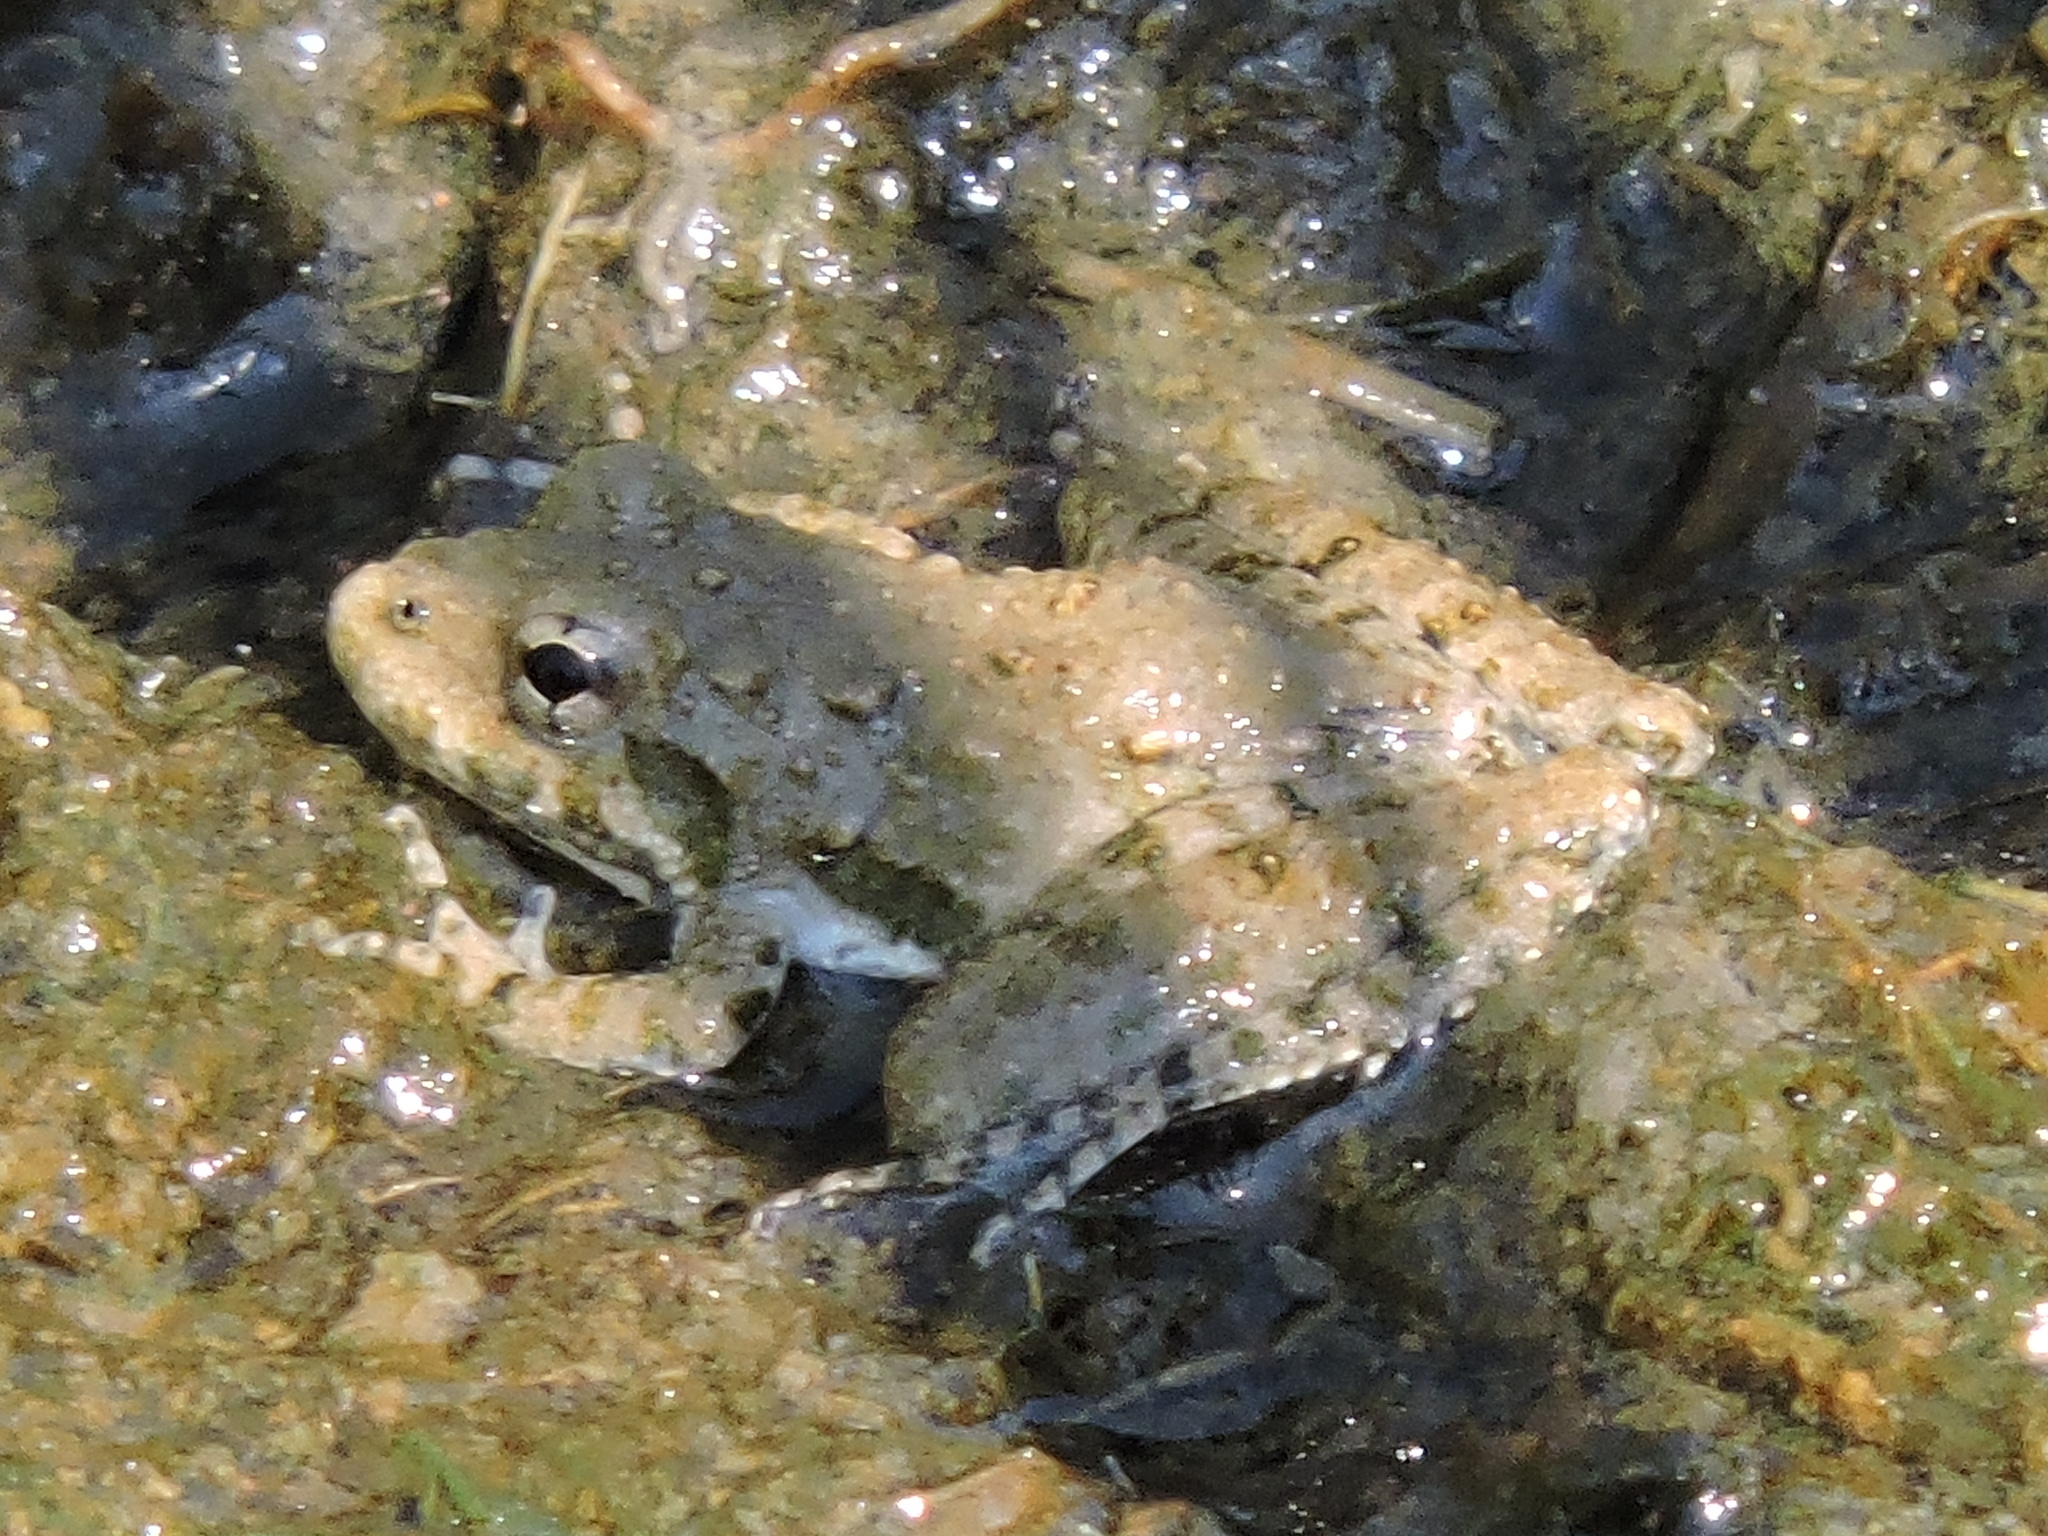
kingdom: Animalia
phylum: Chordata
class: Amphibia
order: Anura
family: Hylidae
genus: Acris
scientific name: Acris blanchardi
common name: Blanchard's cricket frog
